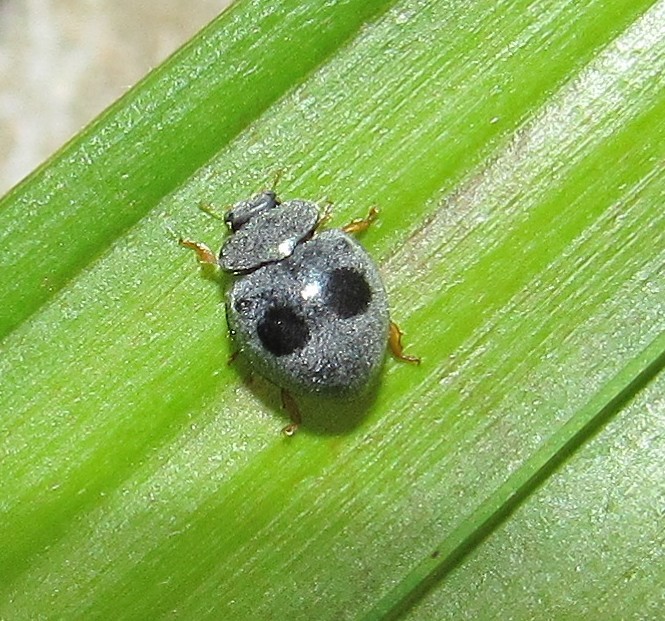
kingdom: Animalia
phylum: Arthropoda
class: Insecta
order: Coleoptera
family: Coccinellidae
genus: Azya
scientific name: Azya luteipes
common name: Ladybird beetle
